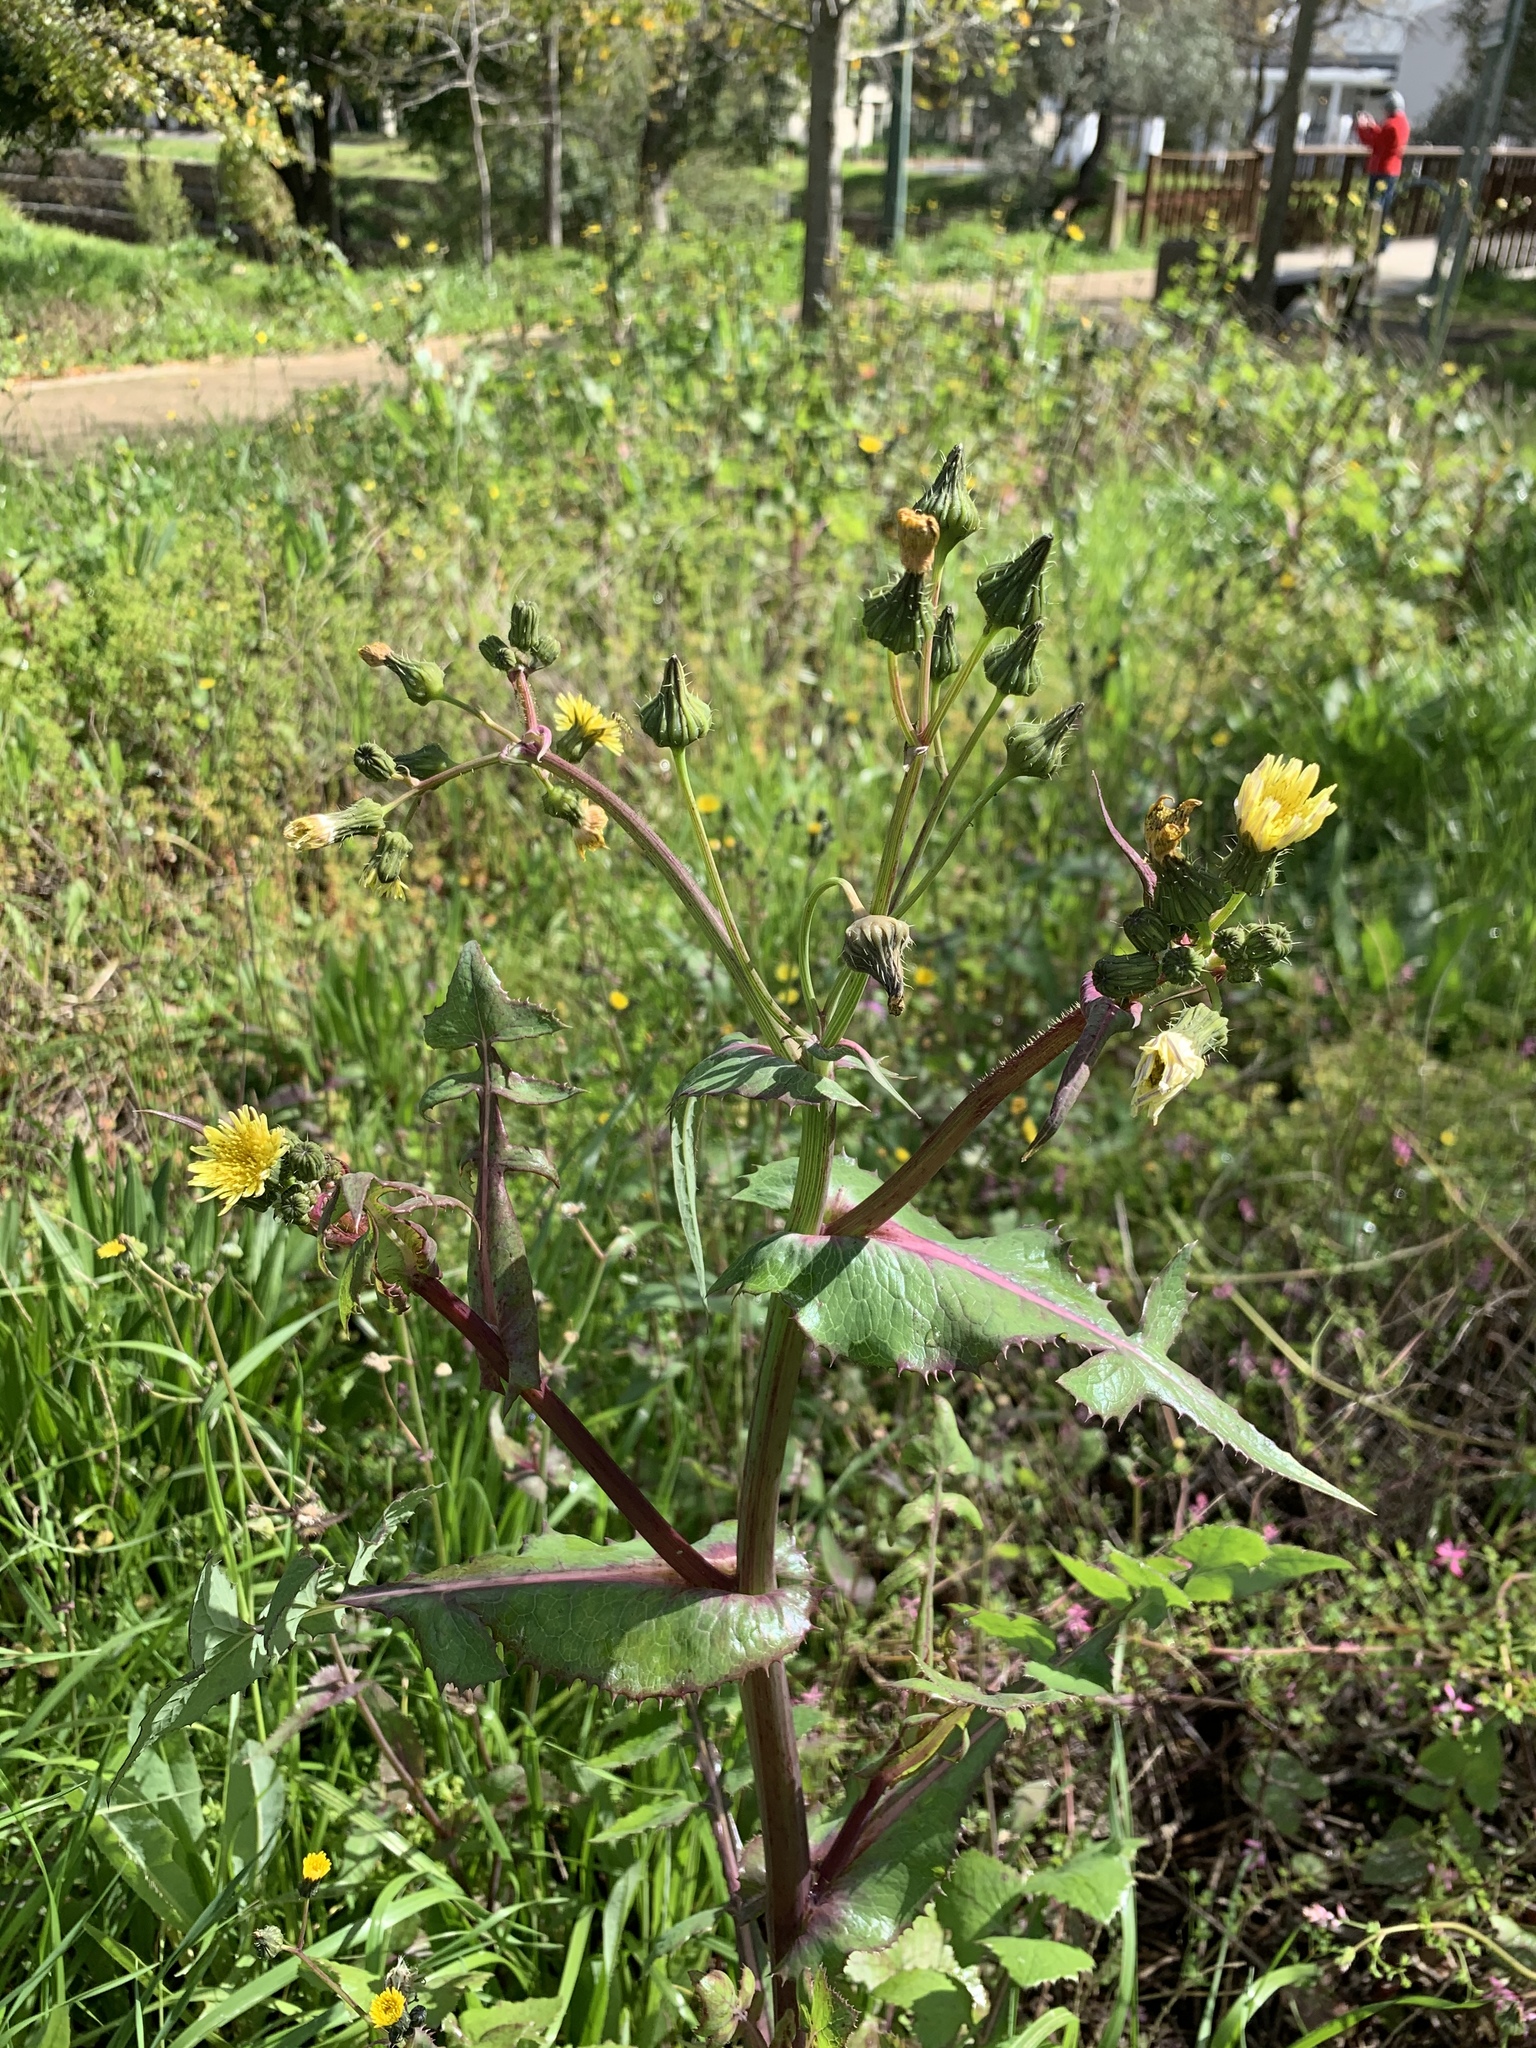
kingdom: Plantae
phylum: Tracheophyta
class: Magnoliopsida
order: Asterales
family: Asteraceae
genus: Sonchus
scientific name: Sonchus oleraceus
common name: Common sowthistle
